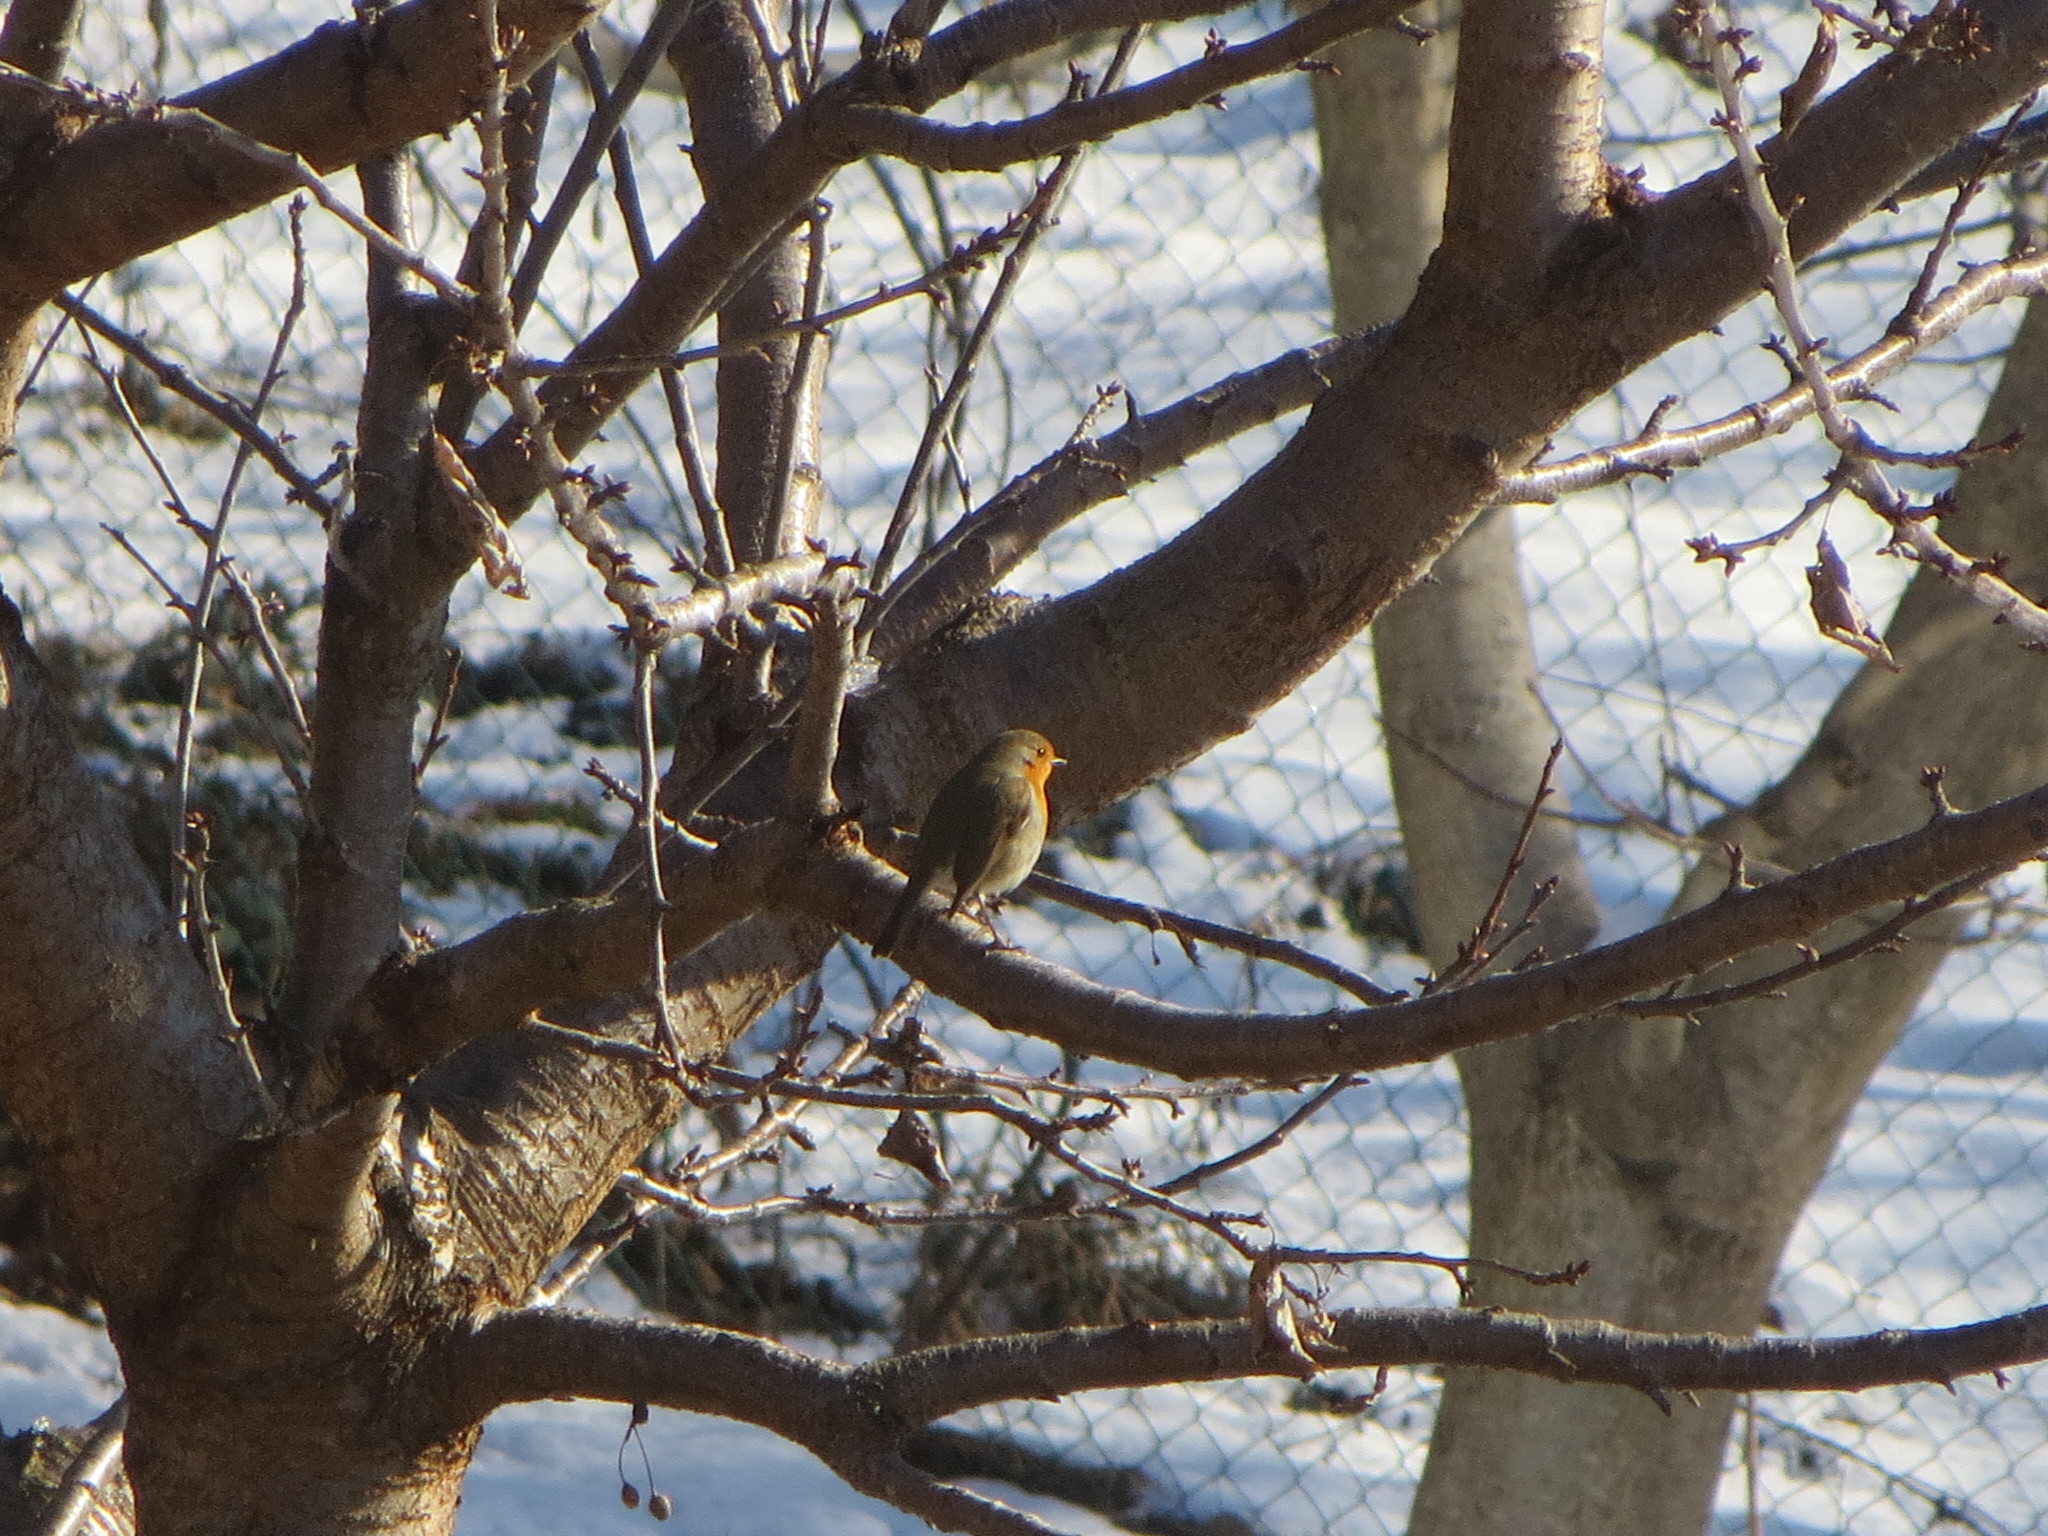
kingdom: Animalia
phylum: Chordata
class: Aves
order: Passeriformes
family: Muscicapidae
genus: Erithacus
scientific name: Erithacus rubecula
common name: European robin
